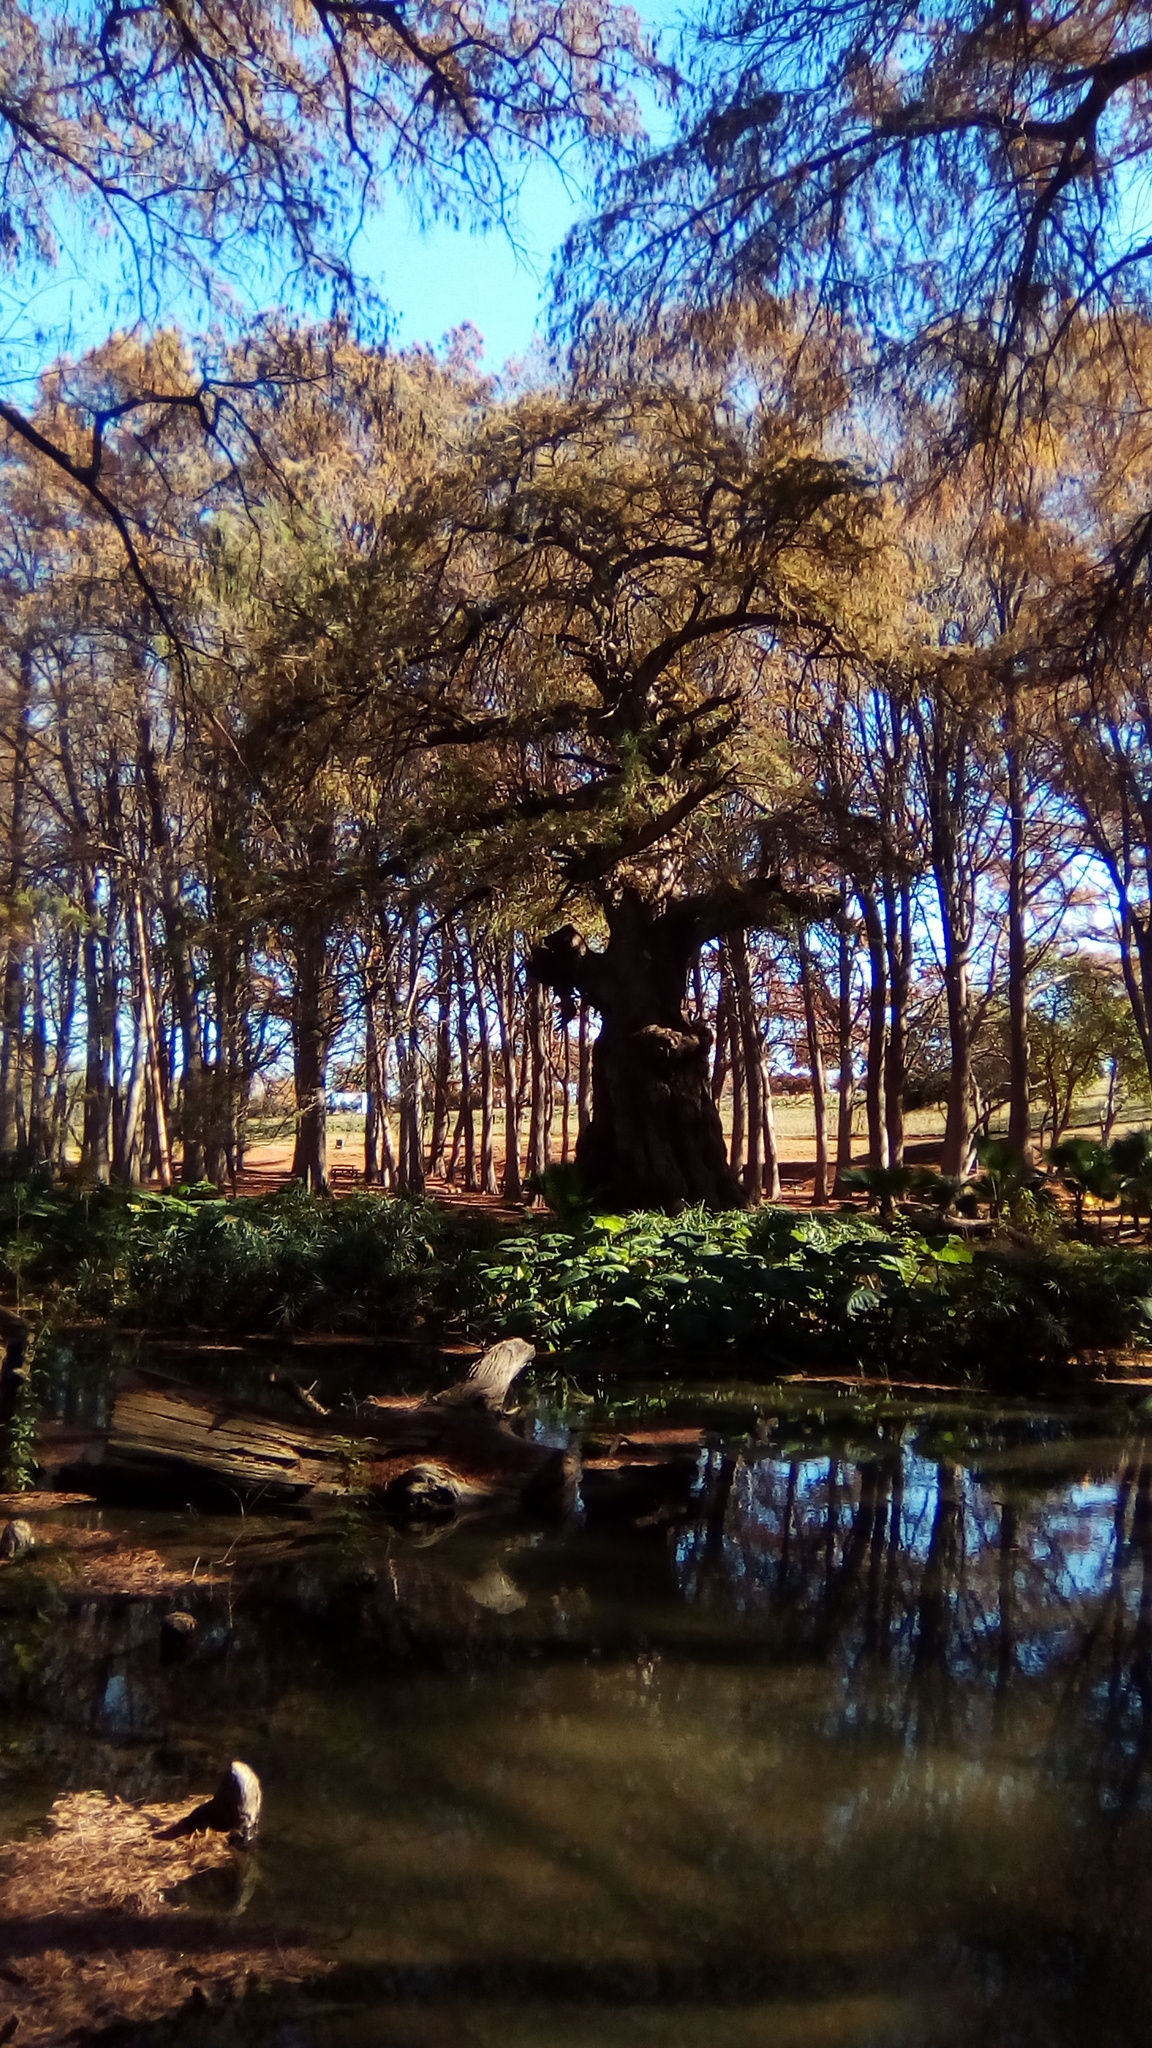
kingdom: Plantae
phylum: Tracheophyta
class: Pinopsida
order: Pinales
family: Cupressaceae
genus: Taxodium
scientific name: Taxodium mucronatum
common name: Montezume bald cypress
